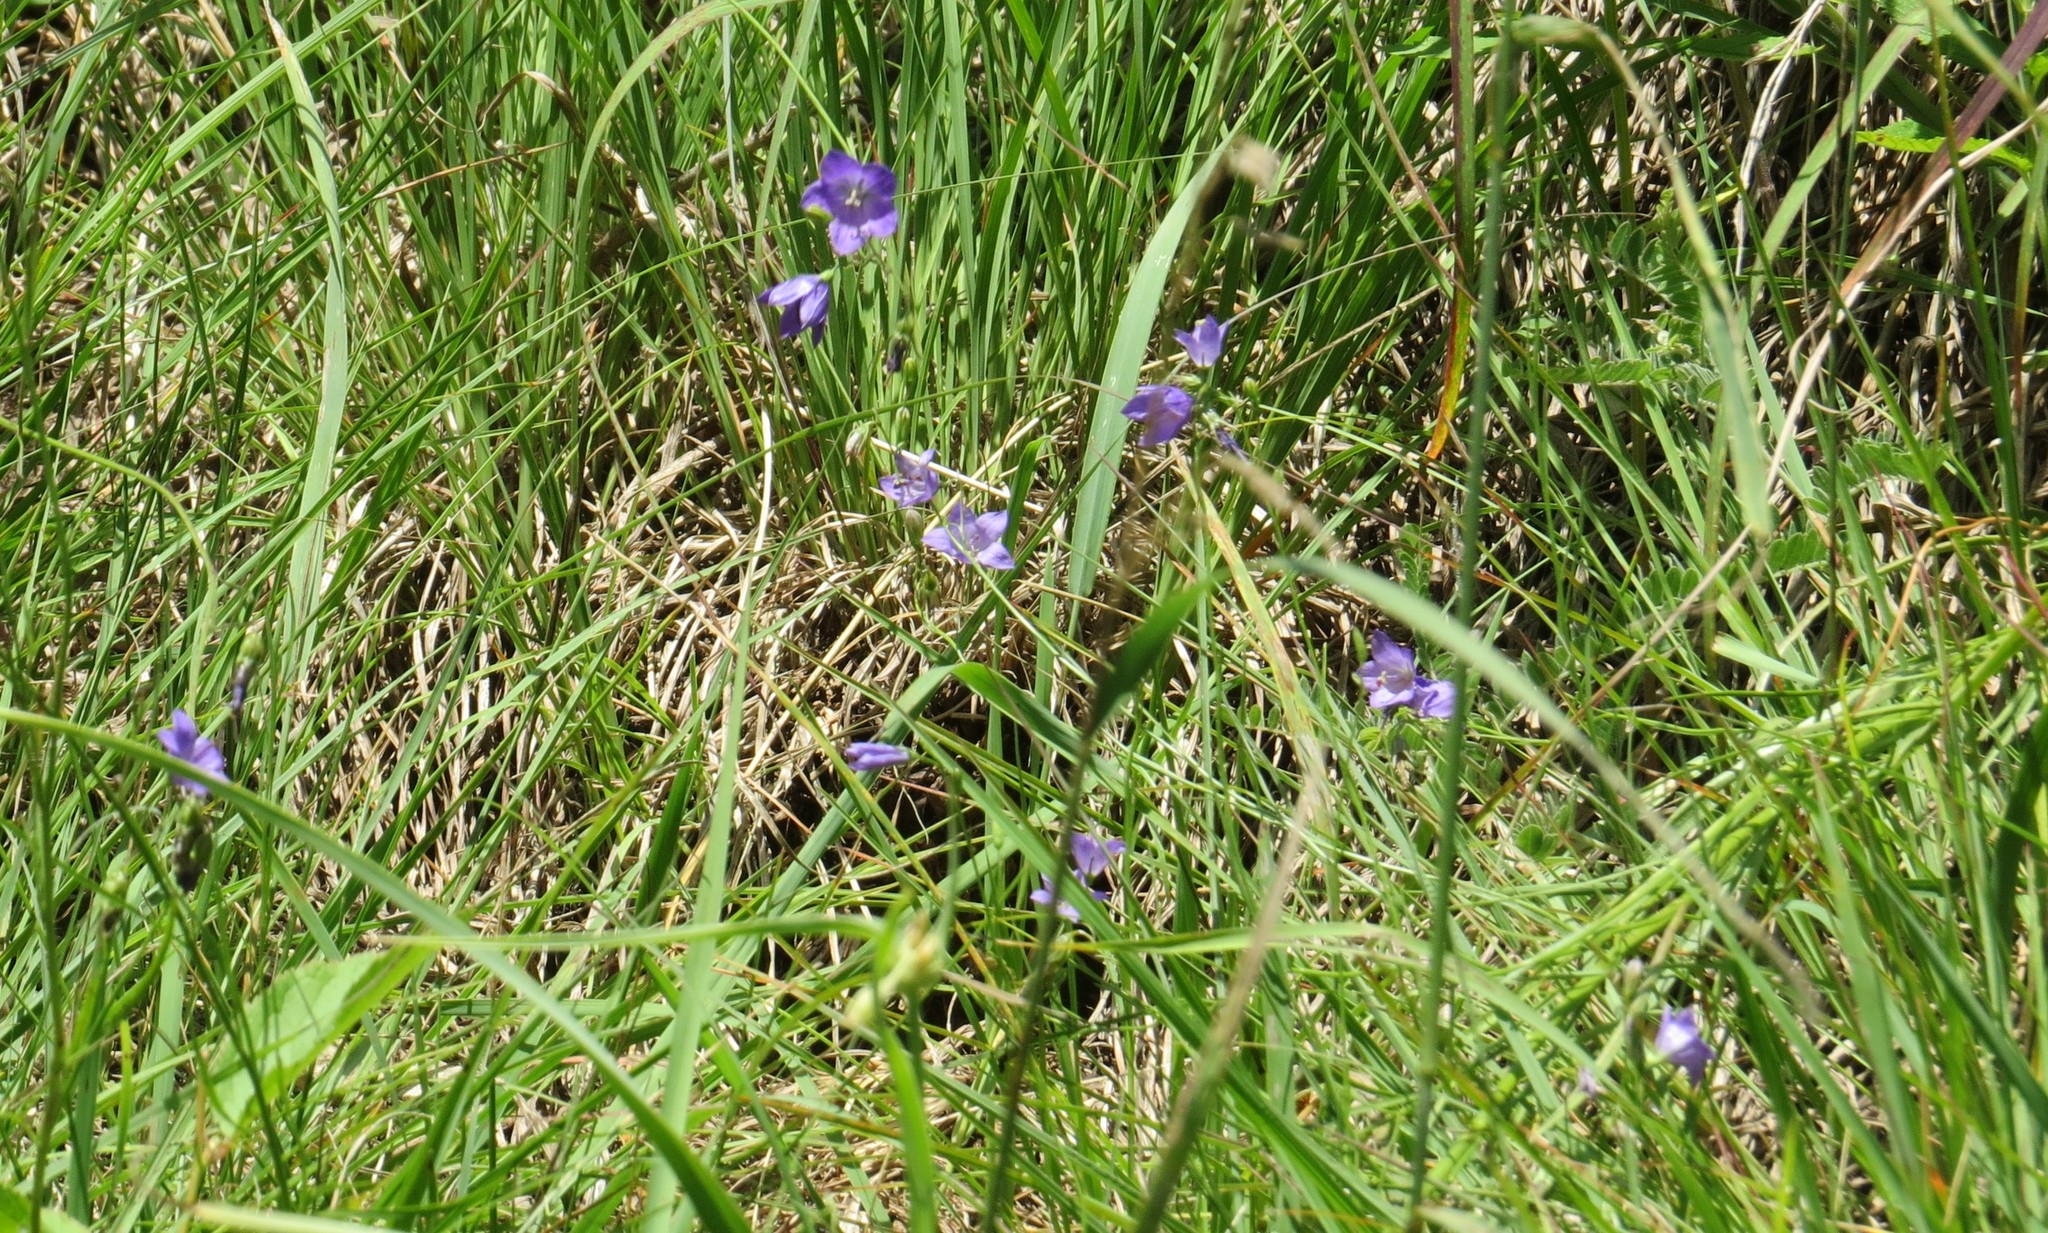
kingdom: Plantae
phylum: Tracheophyta
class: Magnoliopsida
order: Asterales
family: Campanulaceae
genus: Campanula
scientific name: Campanula intercedens
